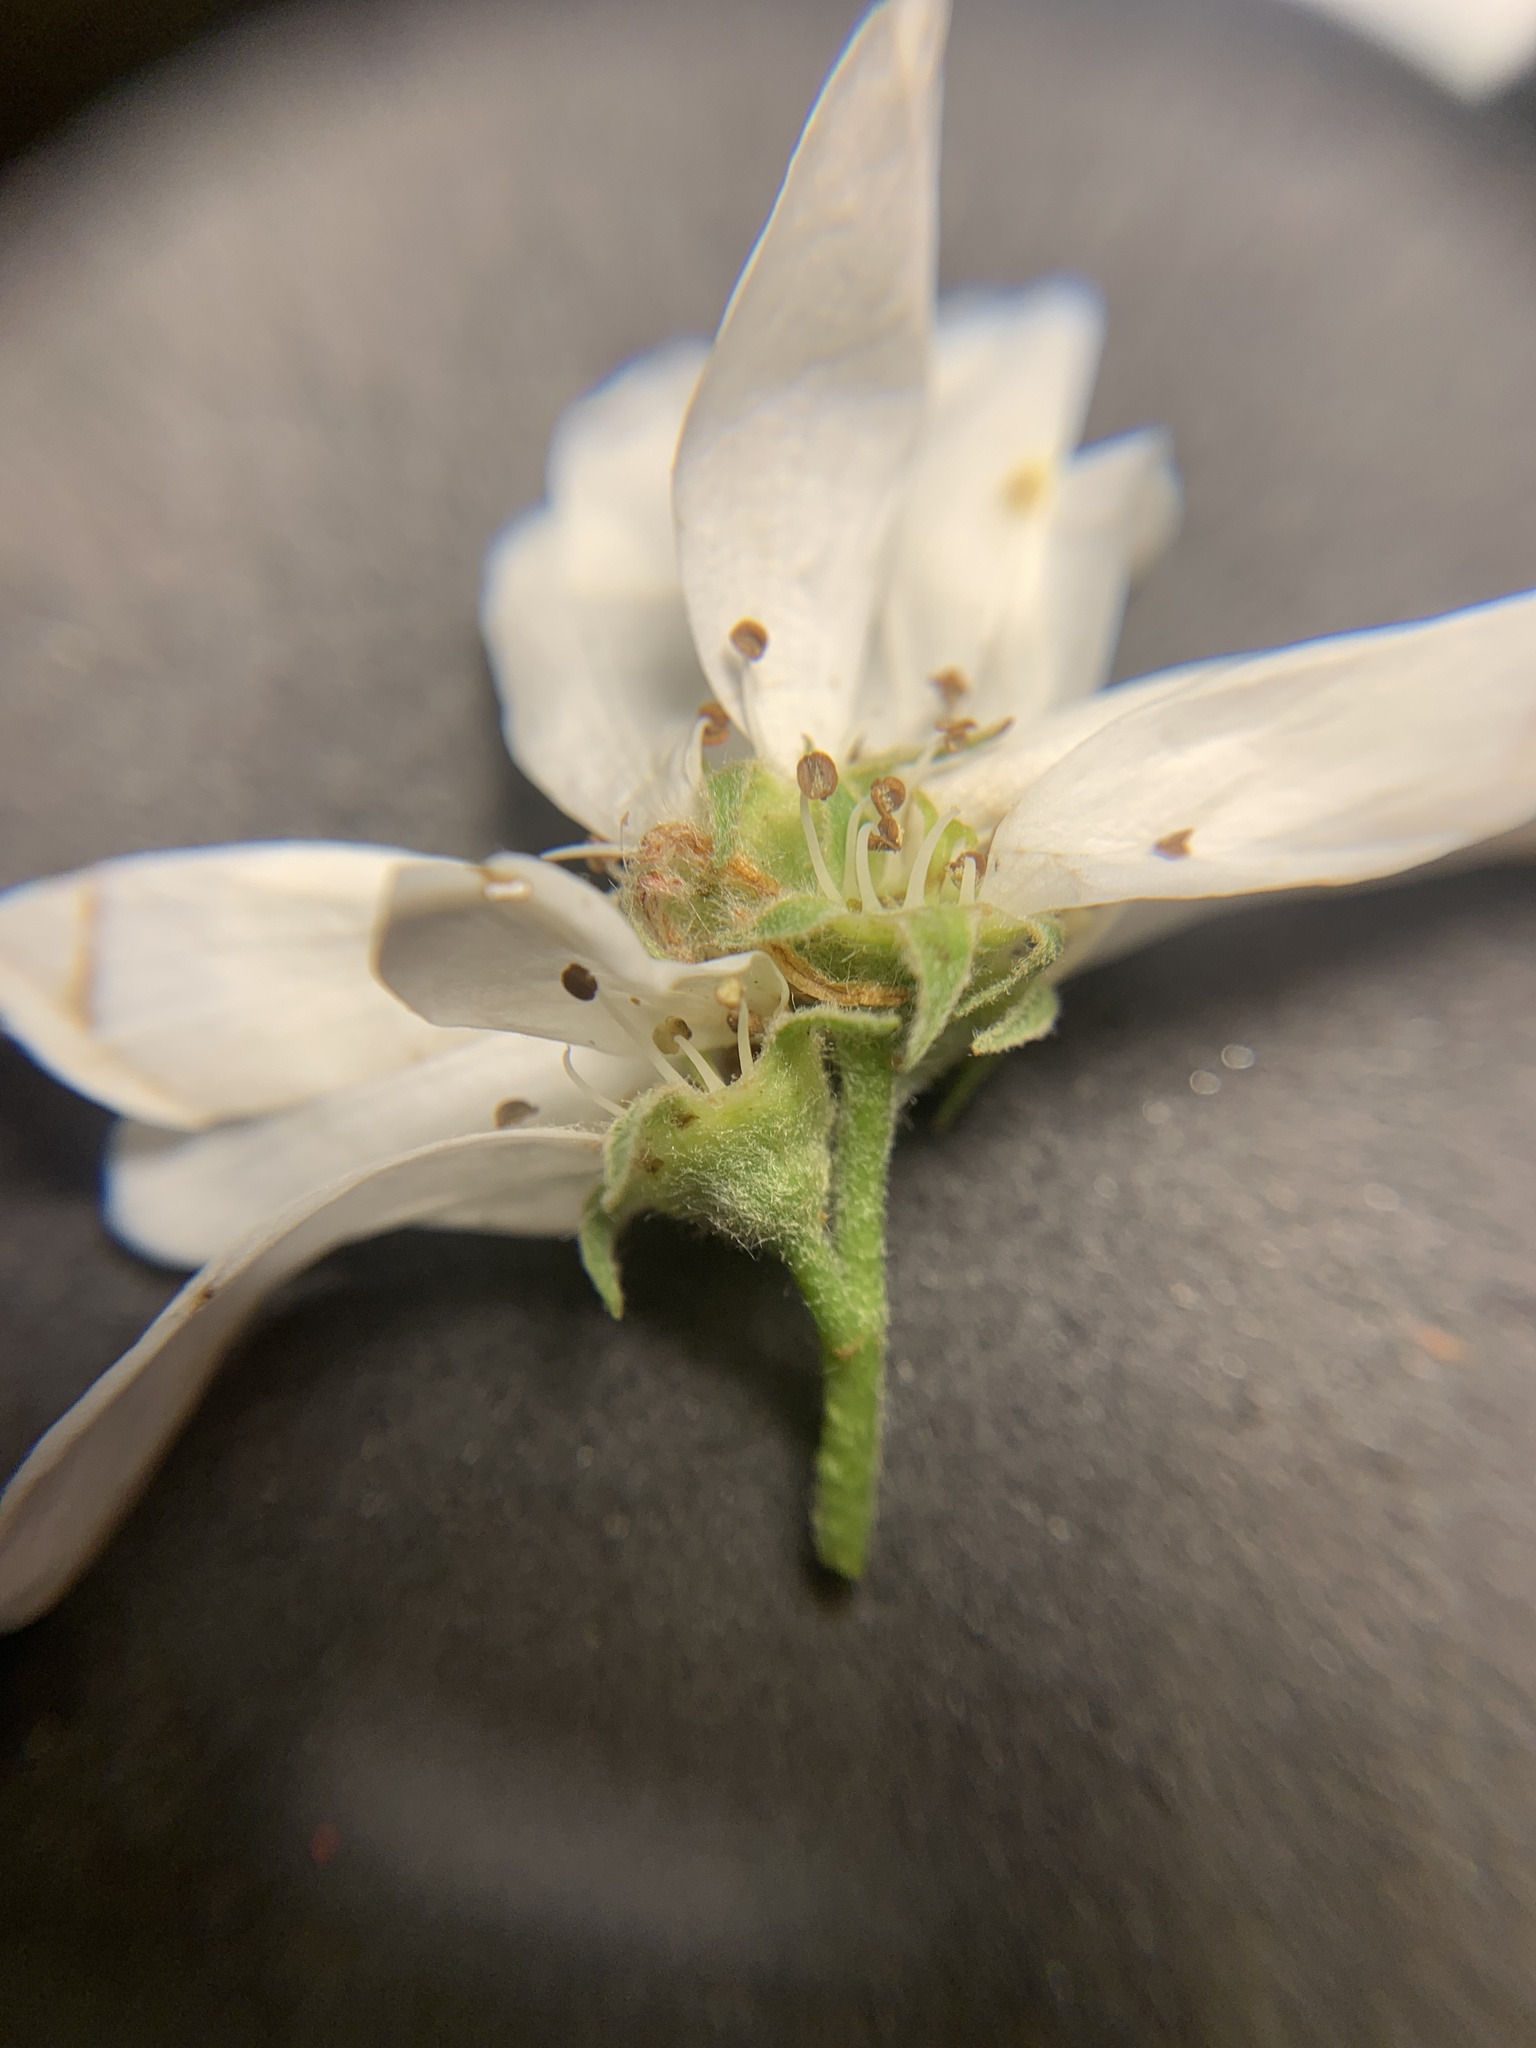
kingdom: Plantae
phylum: Tracheophyta
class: Magnoliopsida
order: Rosales
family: Rosaceae
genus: Amelanchier
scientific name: Amelanchier alnifolia
